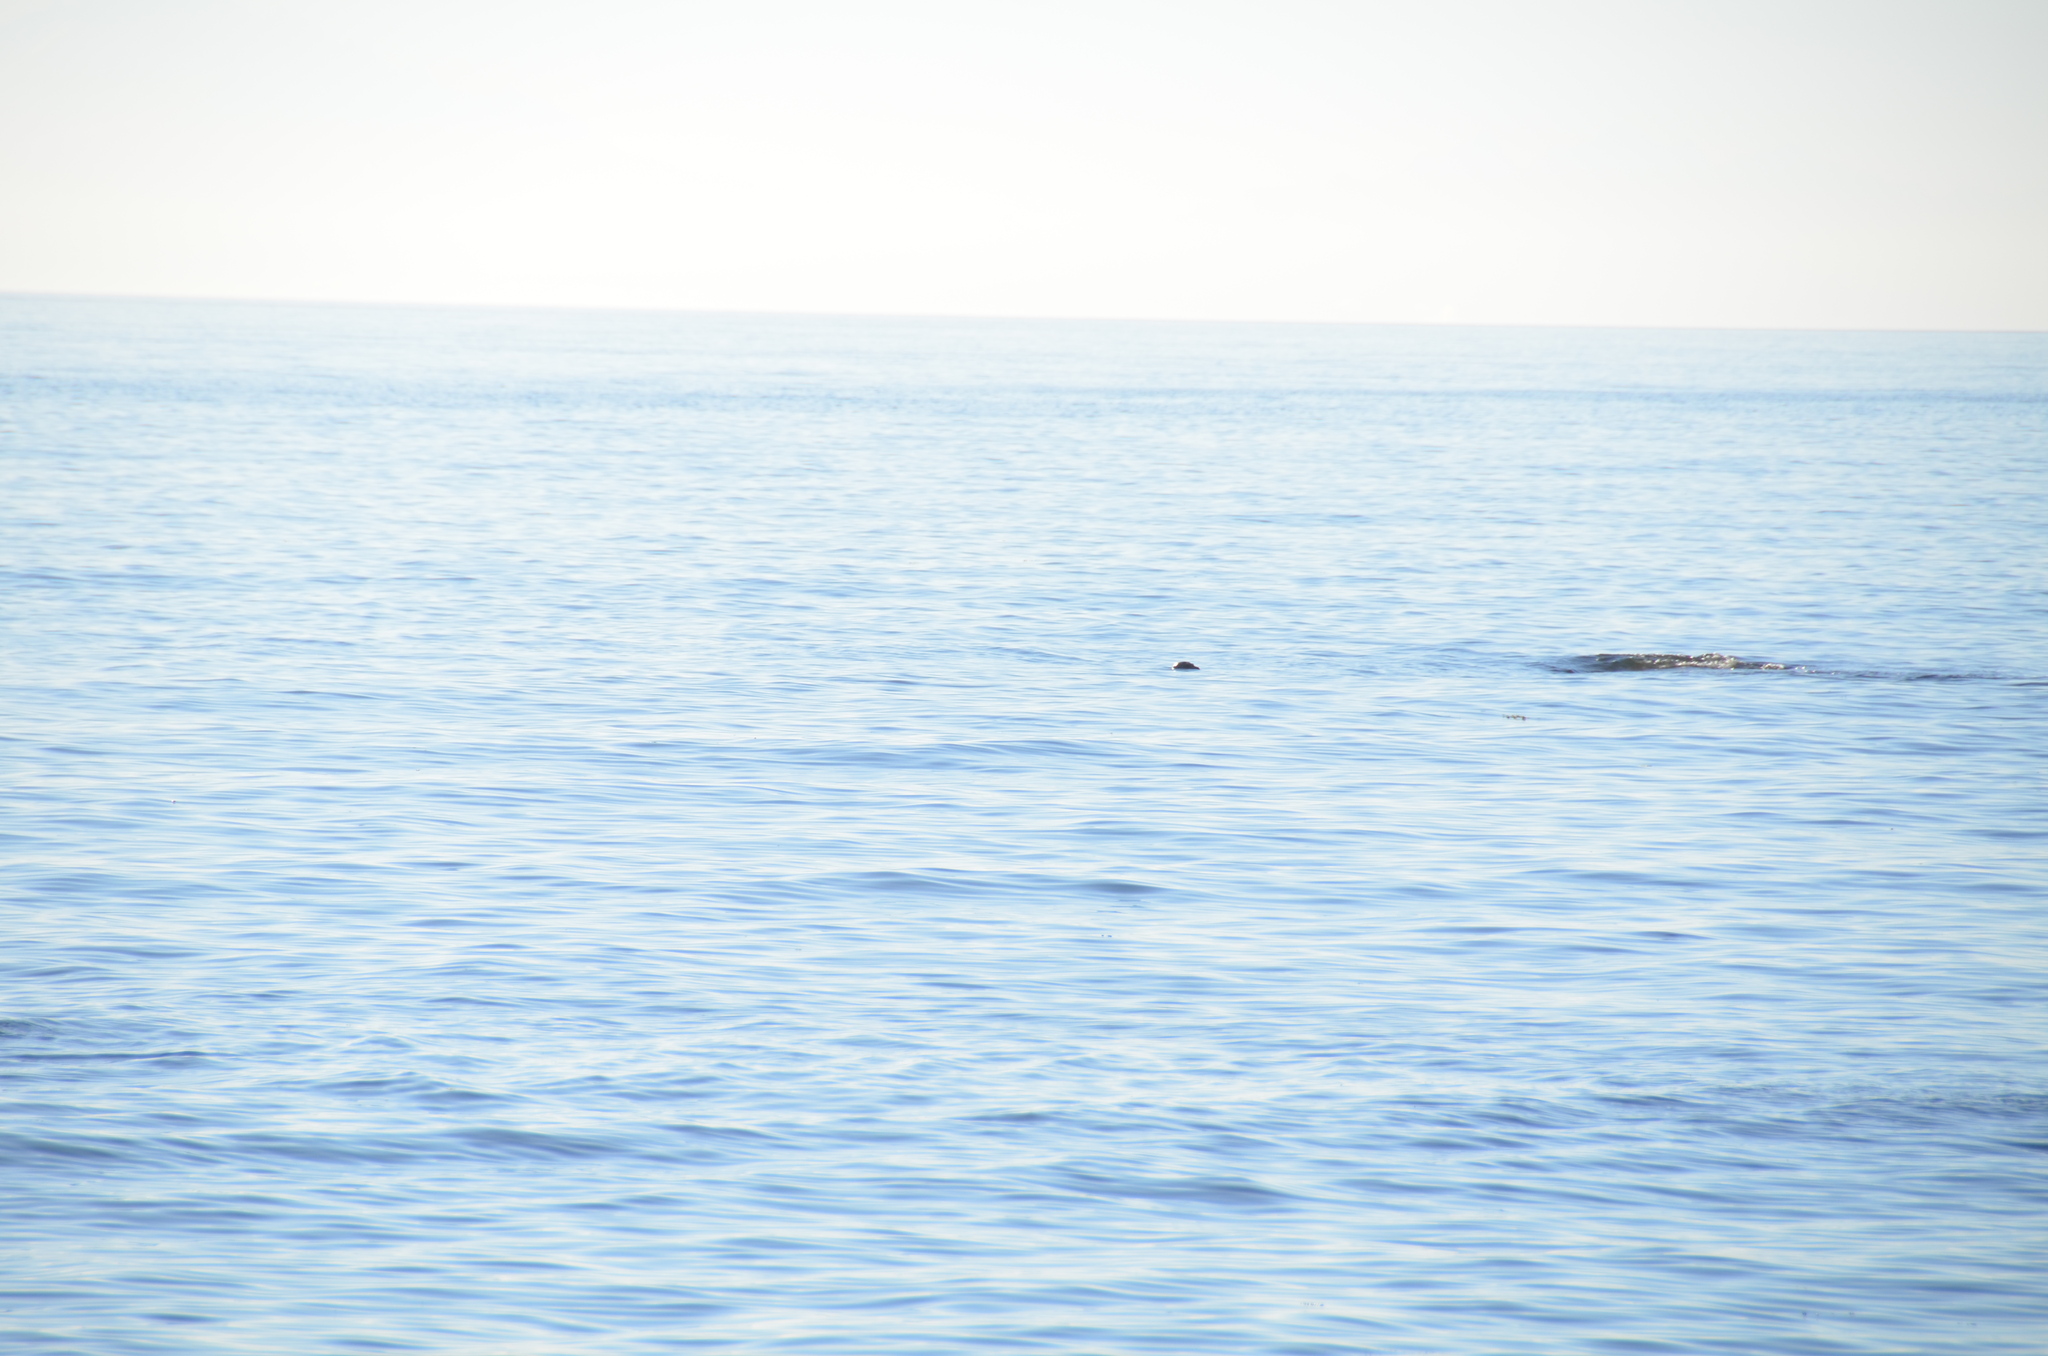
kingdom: Animalia
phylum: Chordata
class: Mammalia
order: Carnivora
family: Phocidae
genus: Phoca
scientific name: Phoca vitulina
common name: Harbor seal
